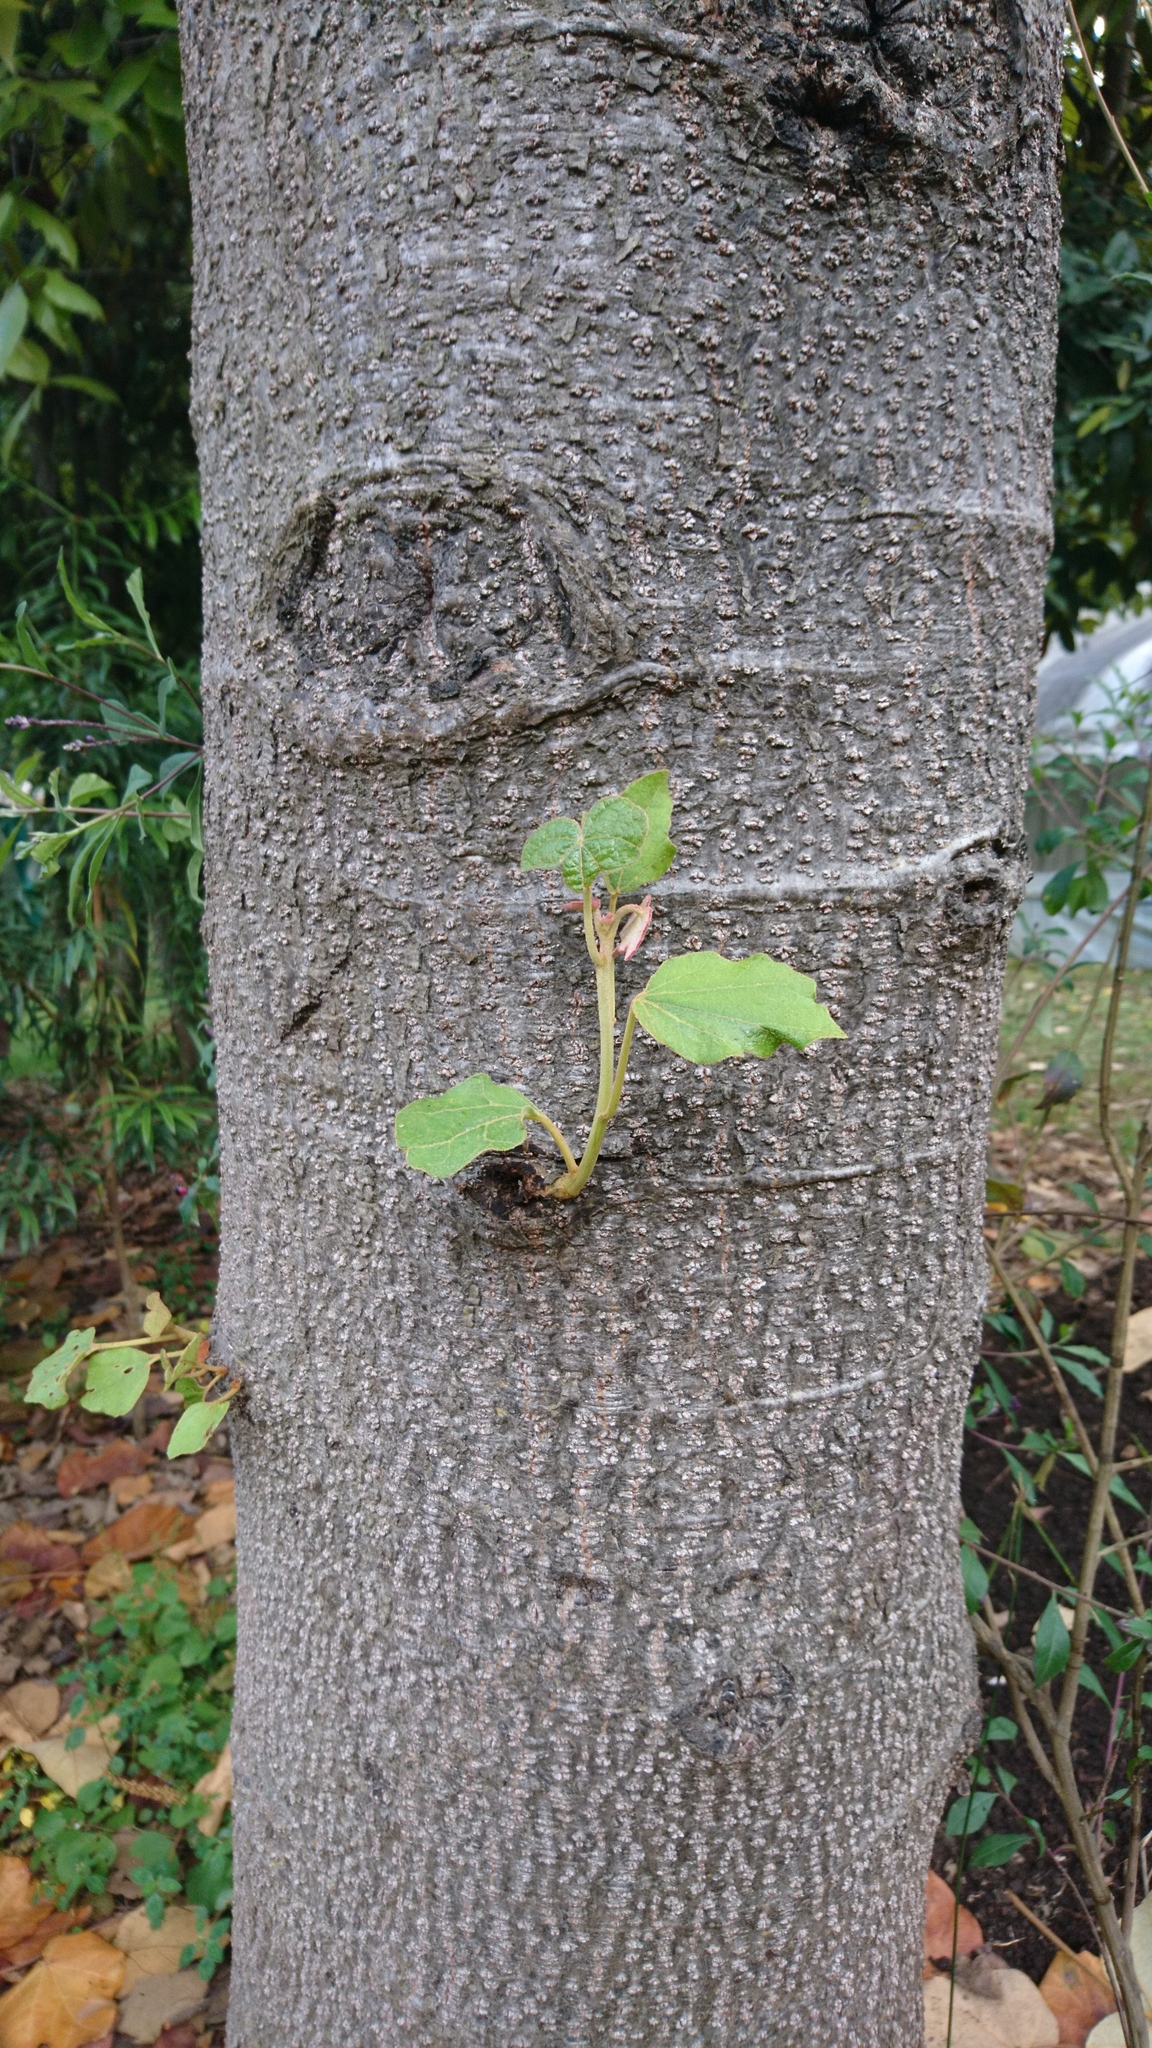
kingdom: Plantae
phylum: Tracheophyta
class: Magnoliopsida
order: Malvales
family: Malvaceae
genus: Chiranthodendron
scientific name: Chiranthodendron pentadactylon
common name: Mexican-hat-plant
